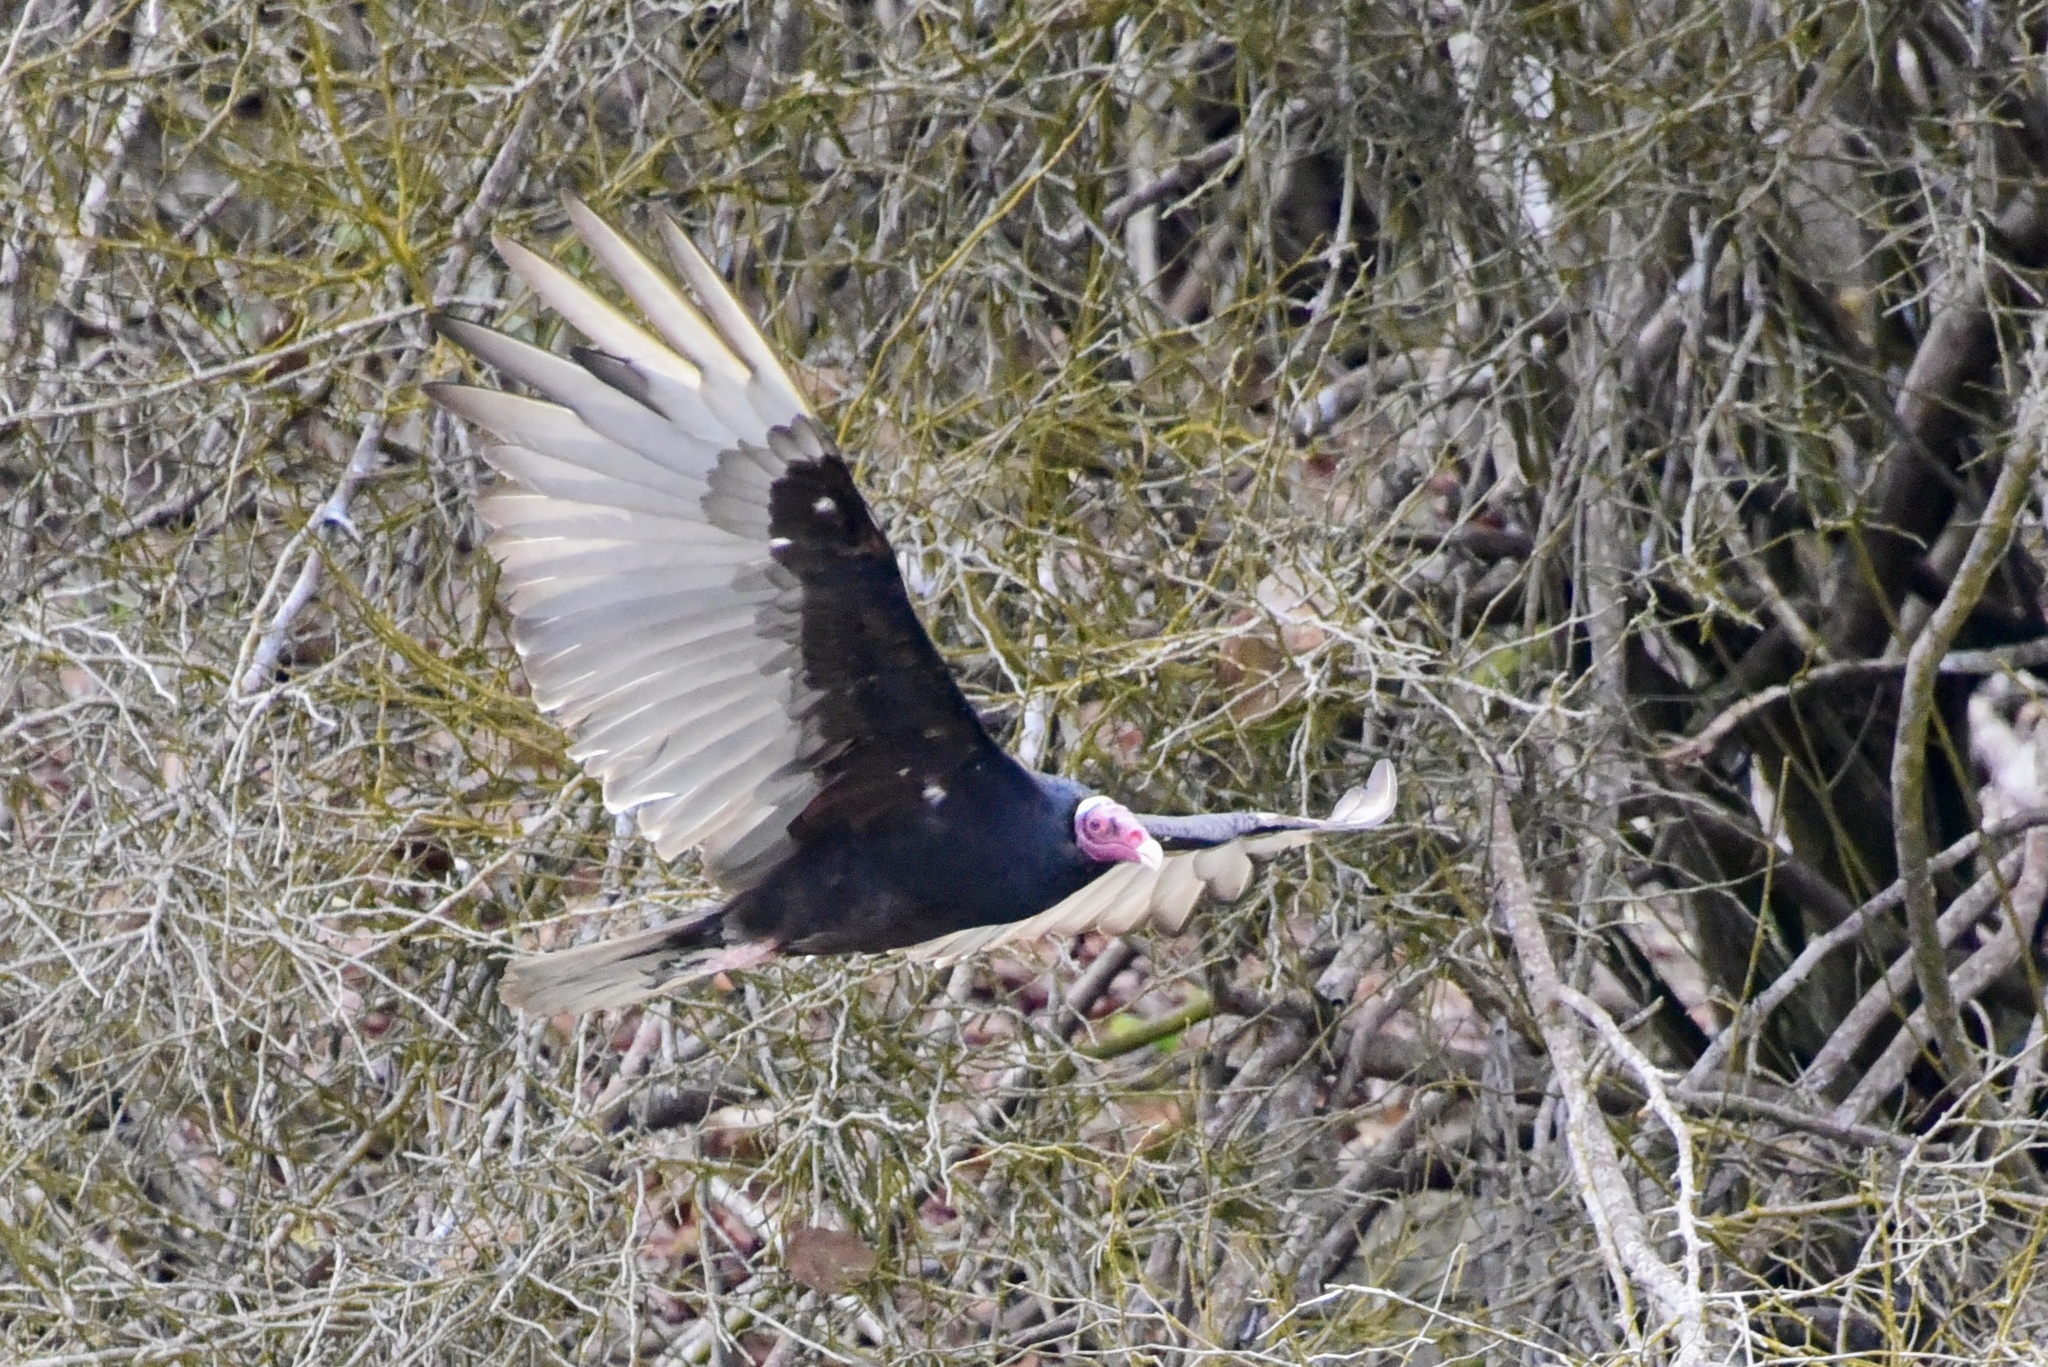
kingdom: Animalia
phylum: Chordata
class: Aves
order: Accipitriformes
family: Cathartidae
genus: Cathartes
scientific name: Cathartes aura
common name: Turkey vulture
